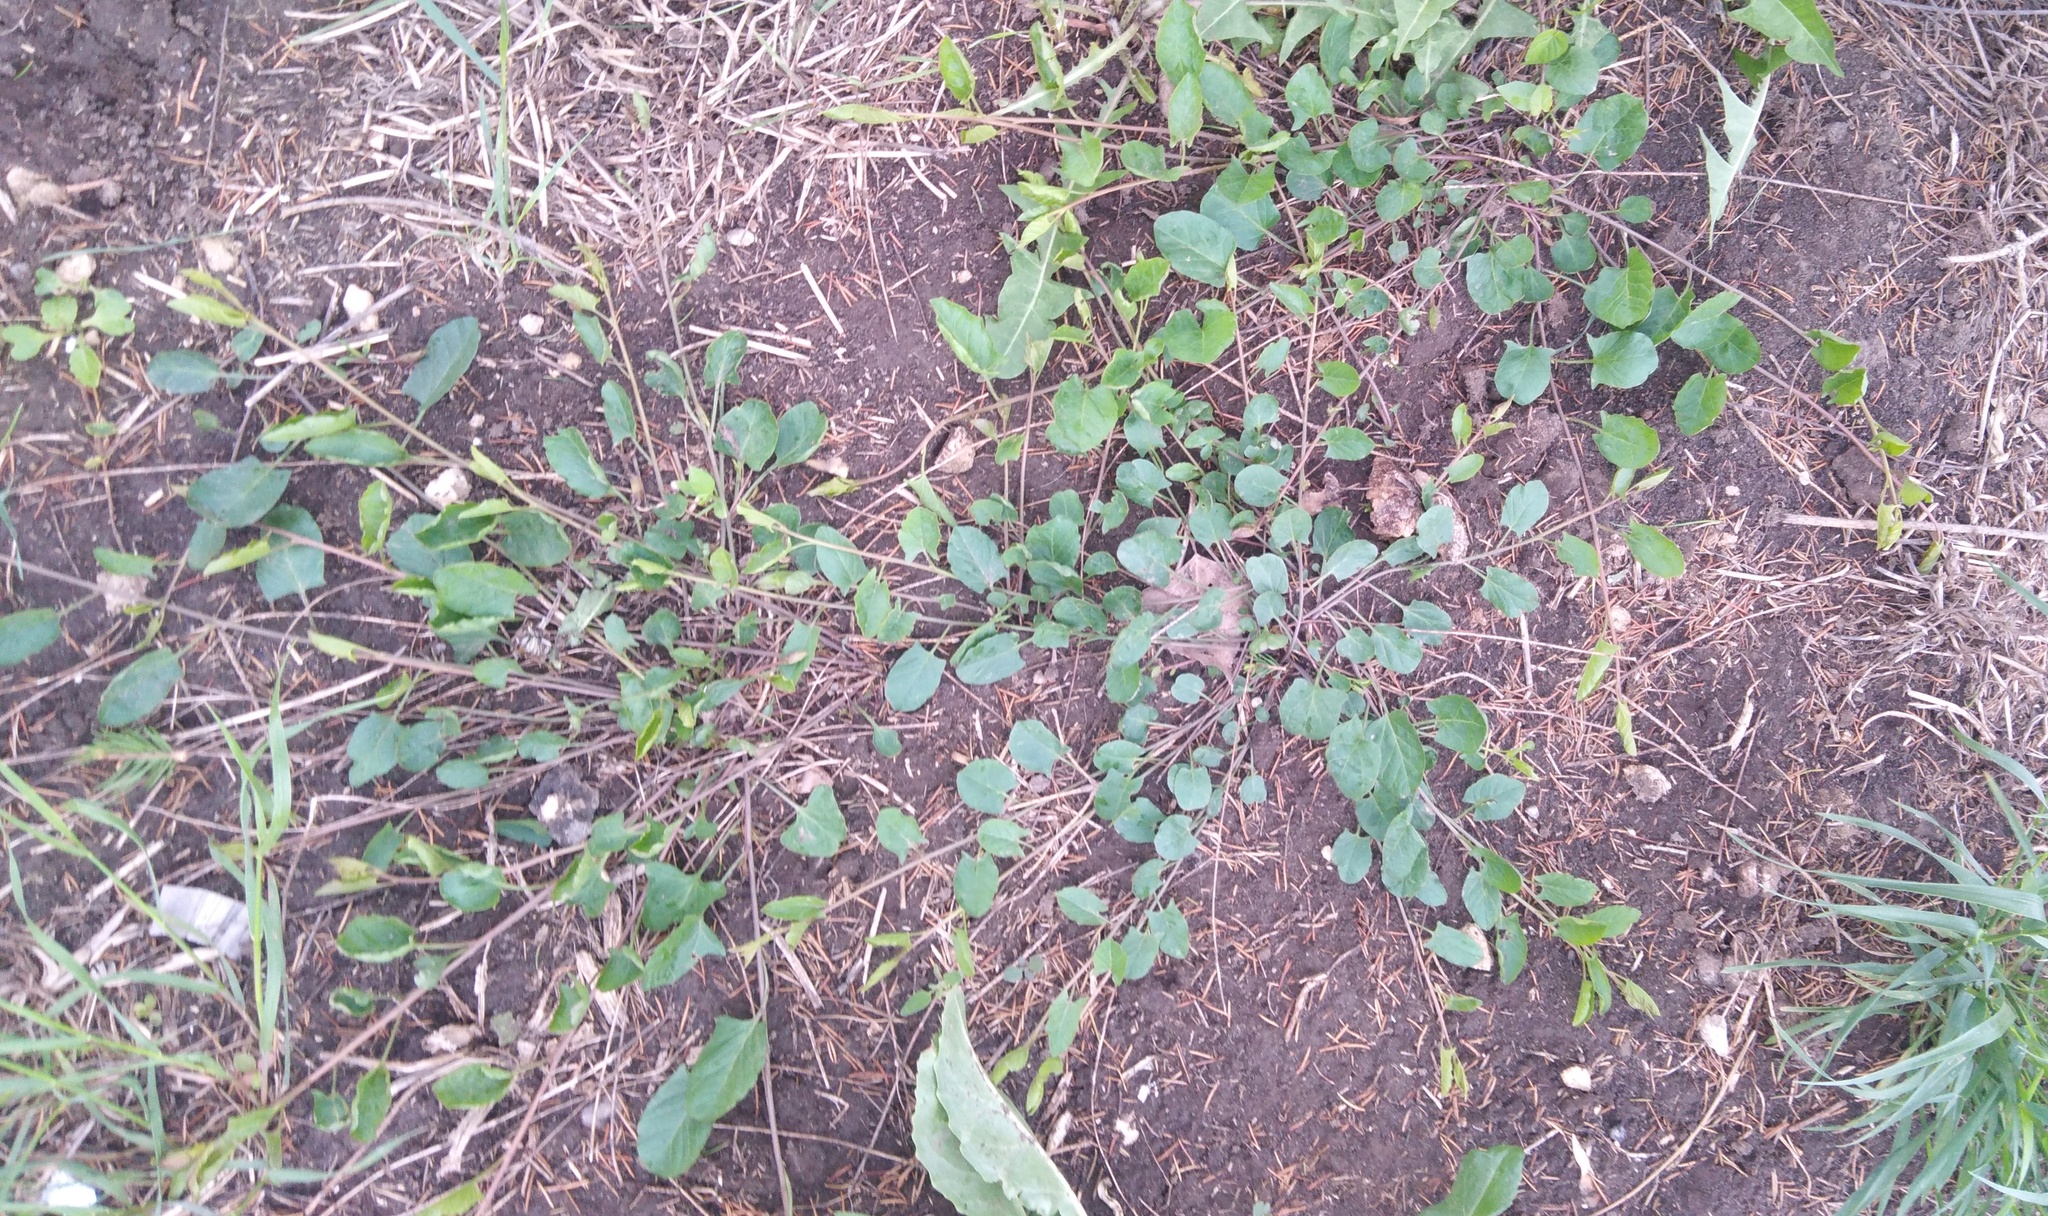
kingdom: Plantae
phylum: Tracheophyta
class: Magnoliopsida
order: Solanales
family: Convolvulaceae
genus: Convolvulus
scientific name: Convolvulus arvensis
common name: Field bindweed
